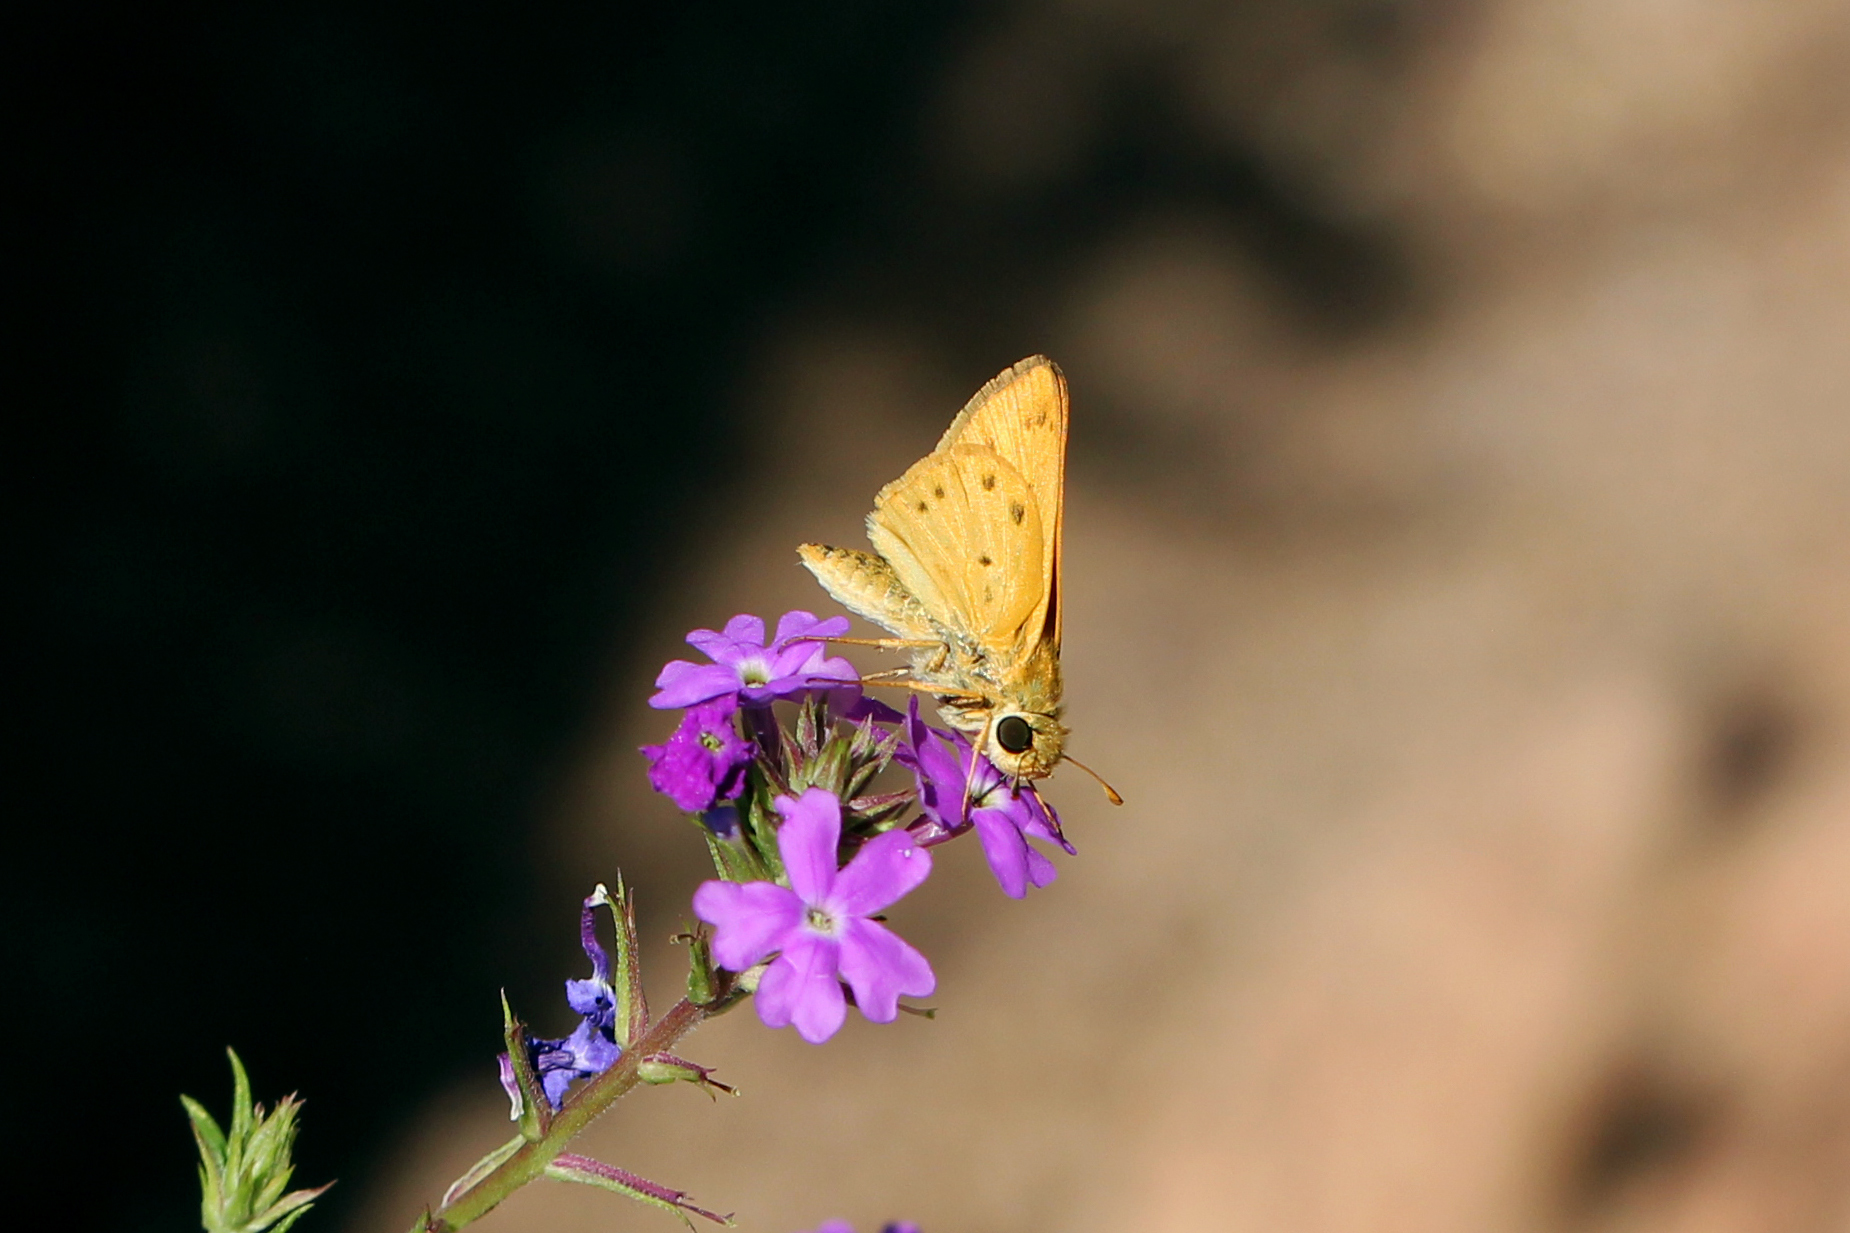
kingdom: Animalia
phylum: Arthropoda
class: Insecta
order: Lepidoptera
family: Hesperiidae
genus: Hylephila
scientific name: Hylephila phyleus
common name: Fiery skipper
